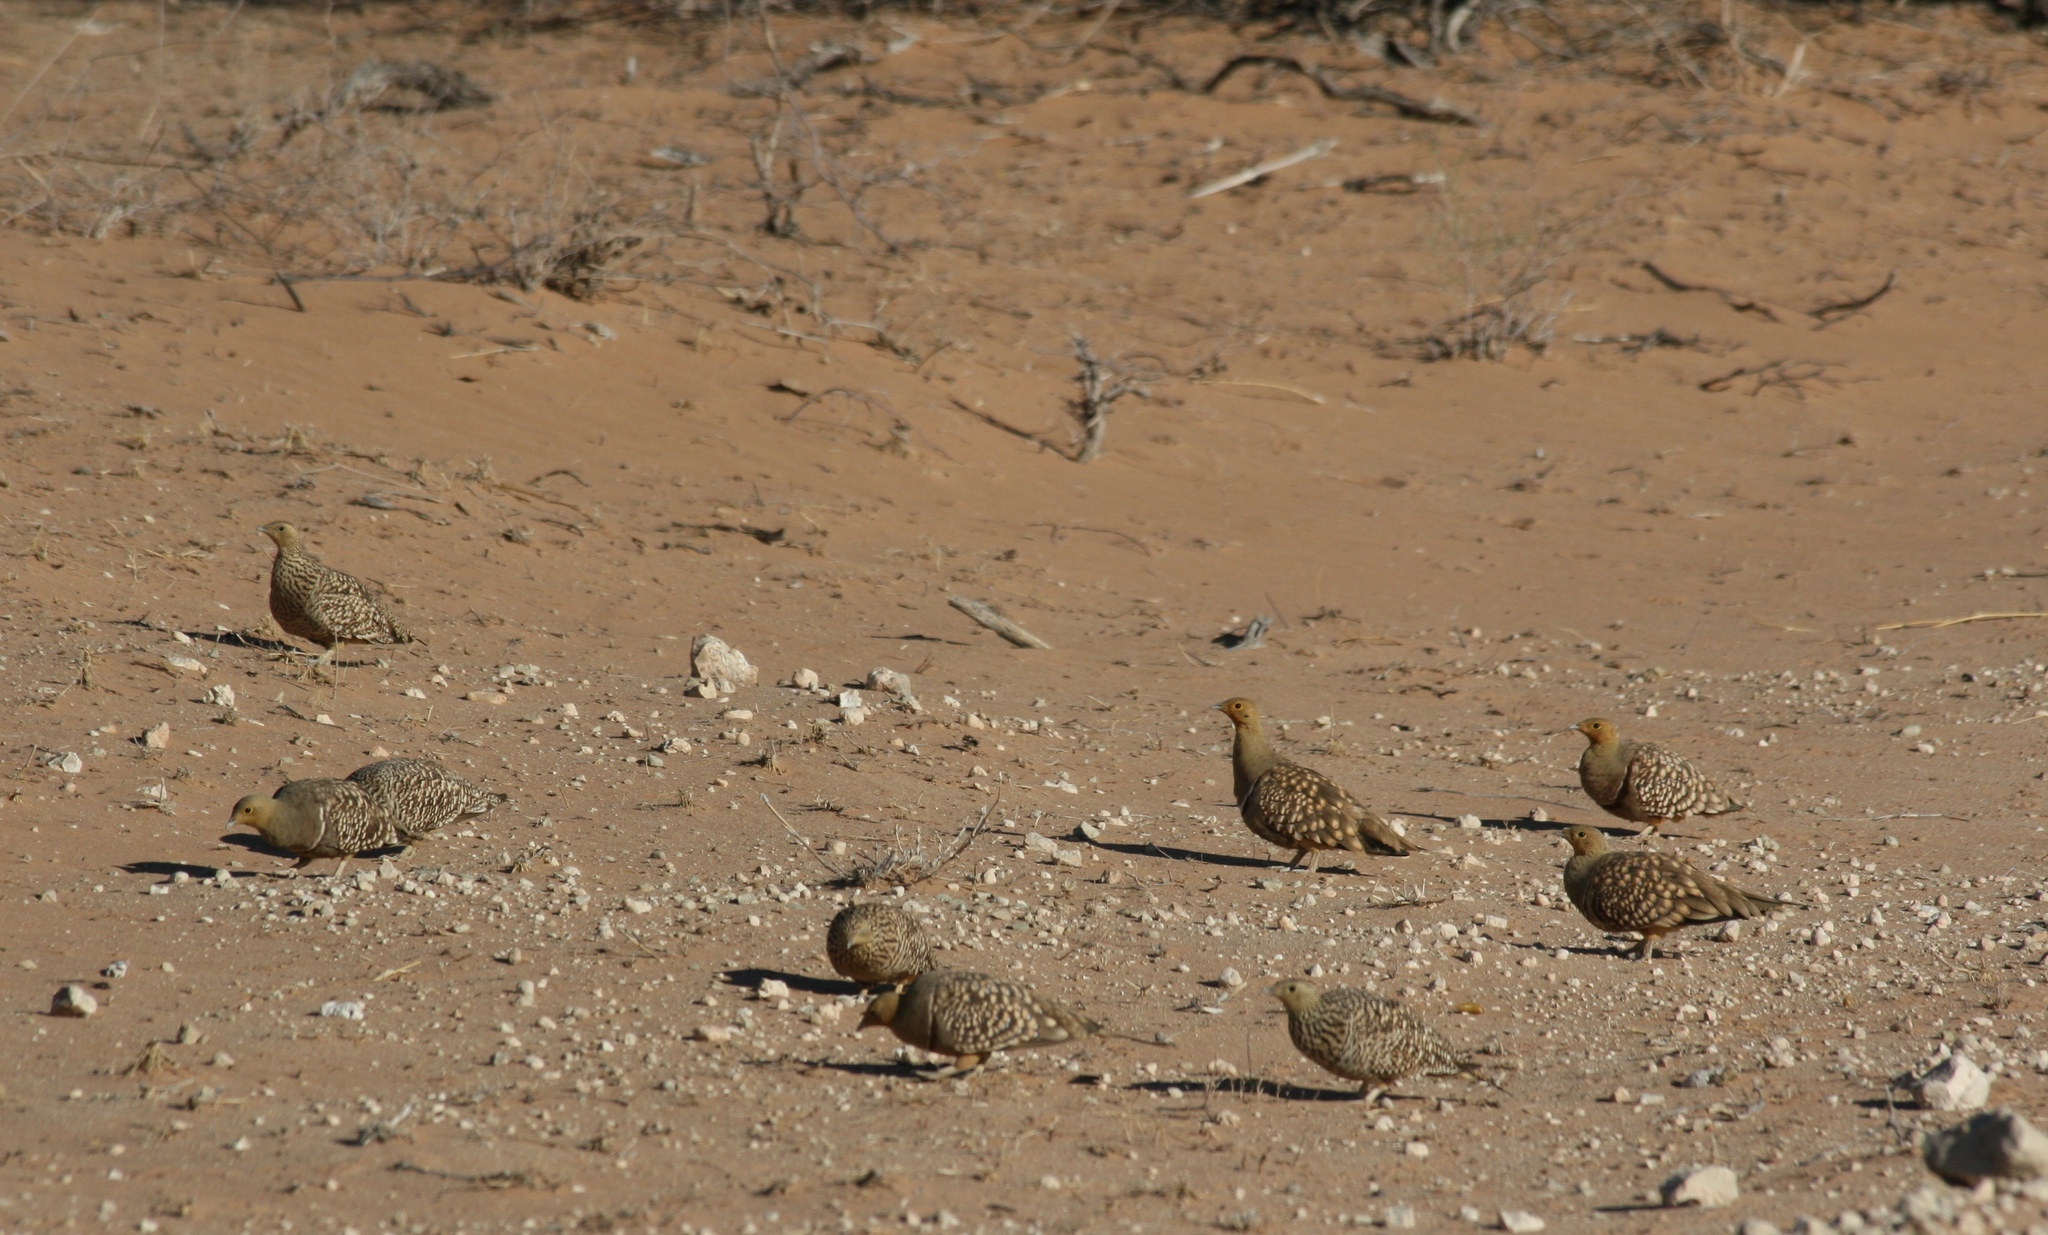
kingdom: Animalia
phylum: Chordata
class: Aves
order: Pteroclidiformes
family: Pteroclididae
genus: Pterocles
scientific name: Pterocles namaqua
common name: Namaqua sandgrouse
